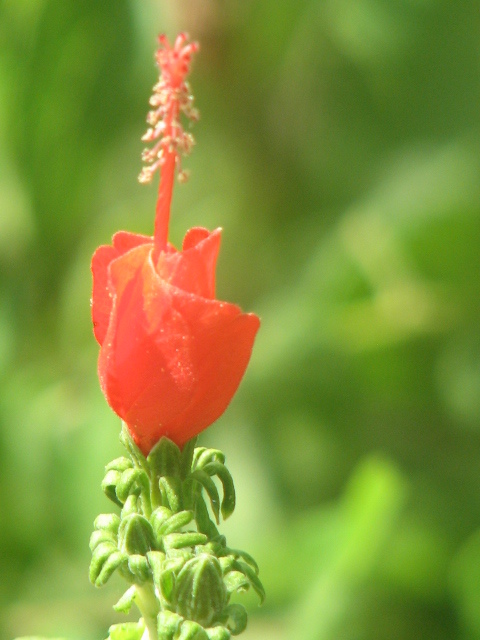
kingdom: Plantae
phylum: Tracheophyta
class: Magnoliopsida
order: Malvales
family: Malvaceae
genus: Malvaviscus
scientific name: Malvaviscus arboreus
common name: Wax mallow
